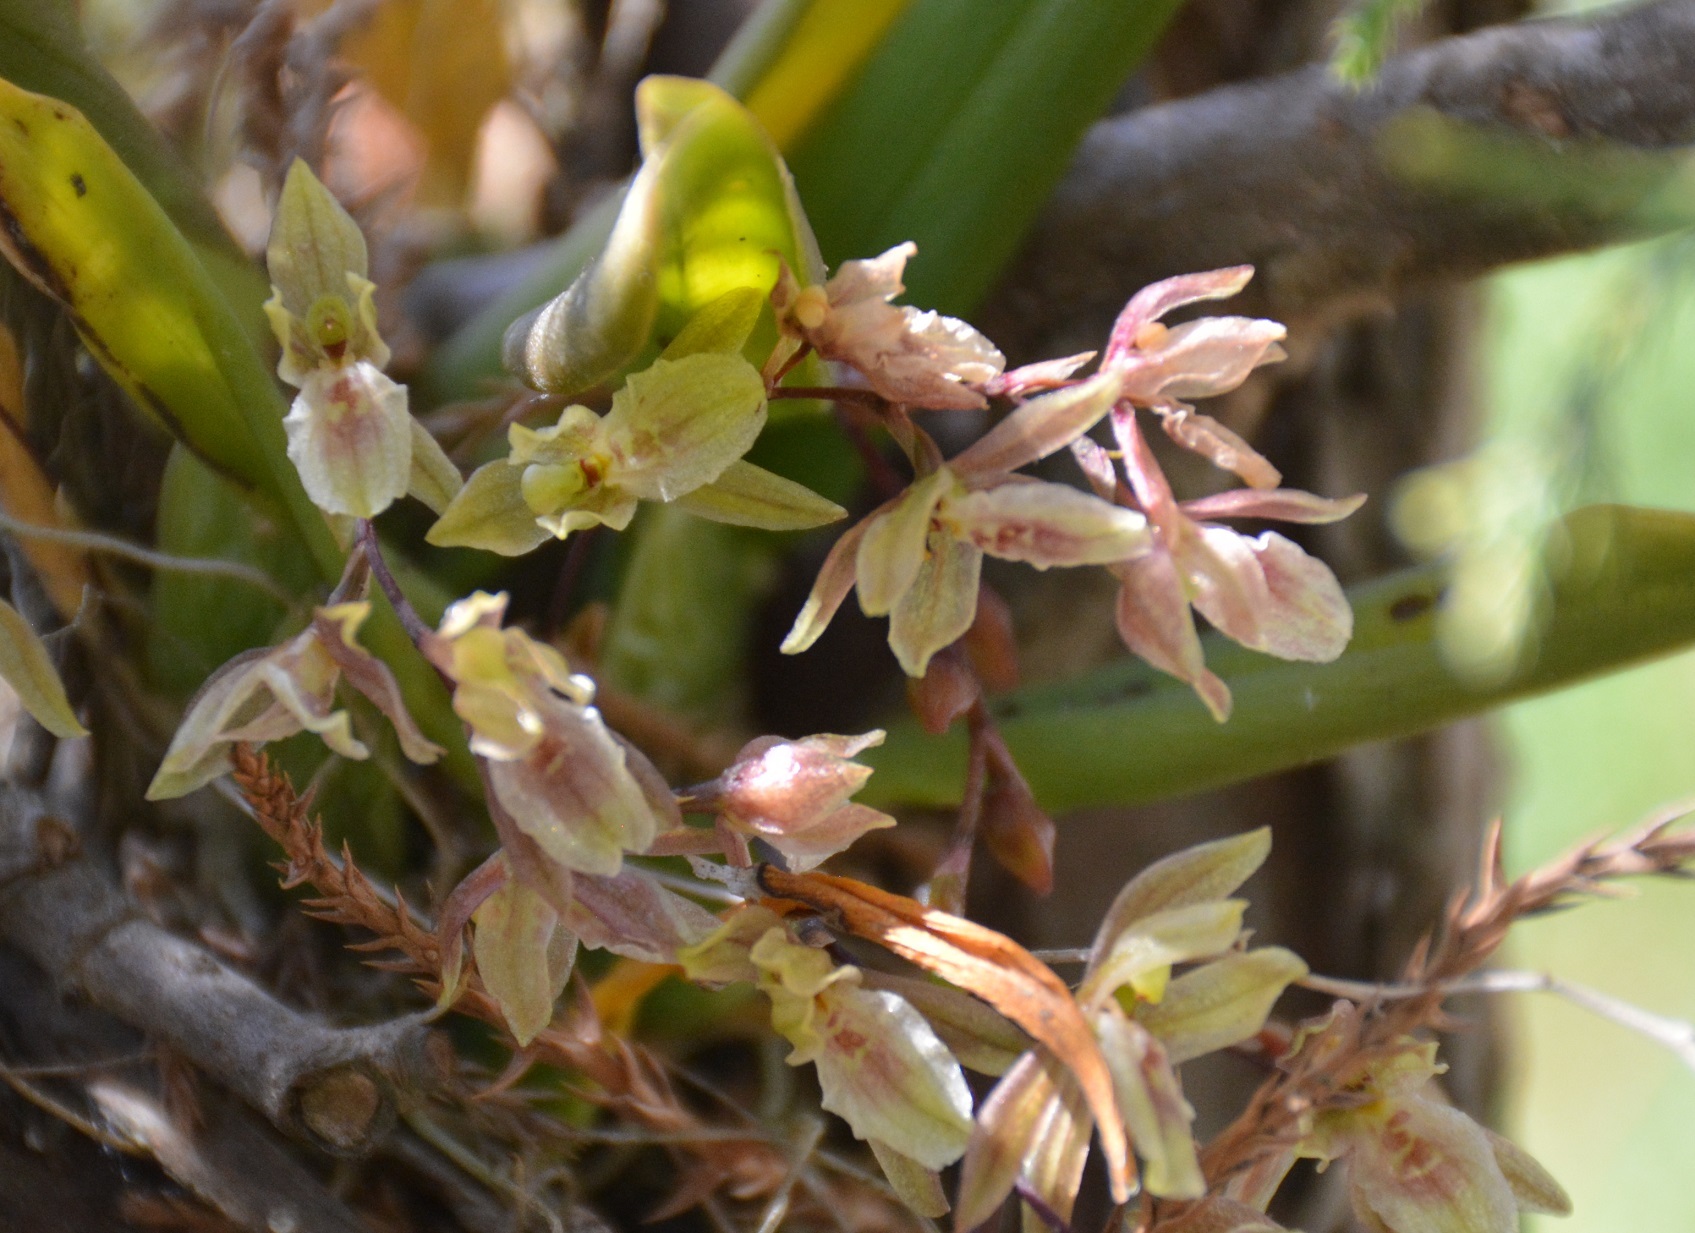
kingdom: Plantae
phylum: Tracheophyta
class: Liliopsida
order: Asparagales
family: Orchidaceae
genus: Leochilus
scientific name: Leochilus oncidioides
